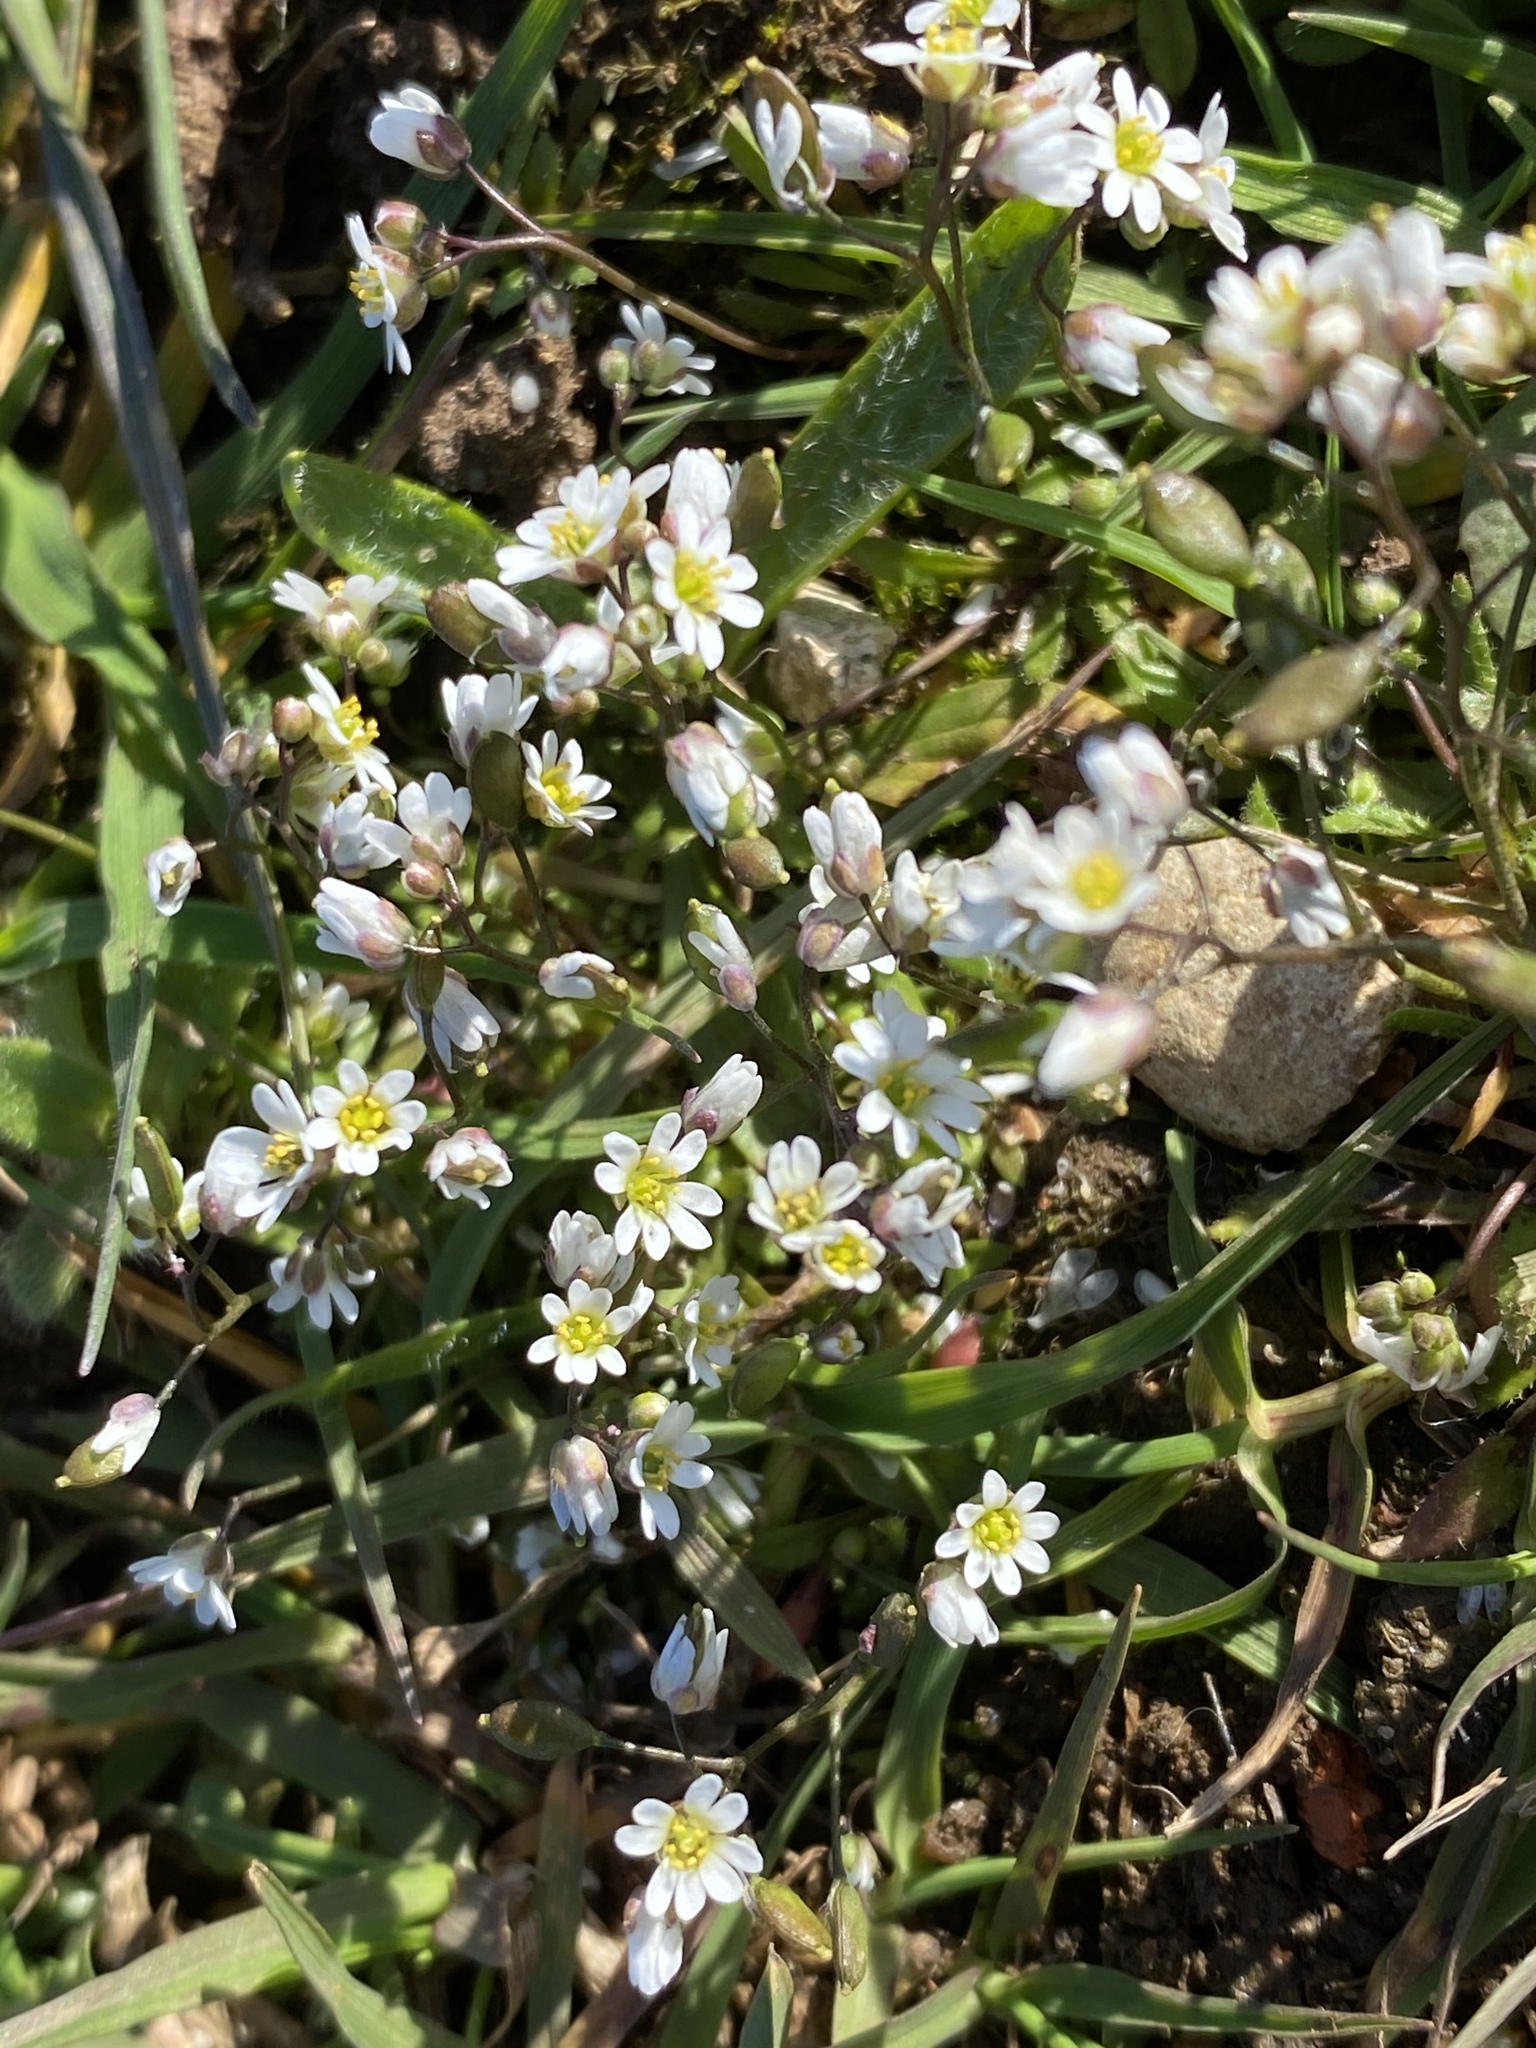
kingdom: Plantae
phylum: Tracheophyta
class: Magnoliopsida
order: Brassicales
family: Brassicaceae
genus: Draba
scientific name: Draba verna
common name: Spring draba
